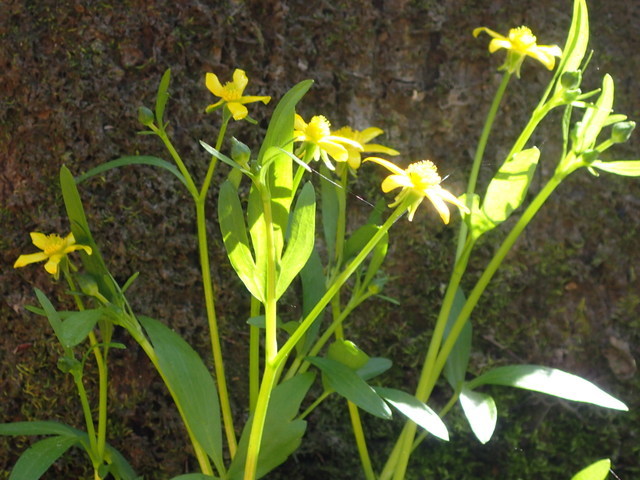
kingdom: Plantae
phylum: Tracheophyta
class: Magnoliopsida
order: Ranunculales
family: Ranunculaceae
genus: Ranunculus
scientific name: Ranunculus hispidus
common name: Bristly buttercup
